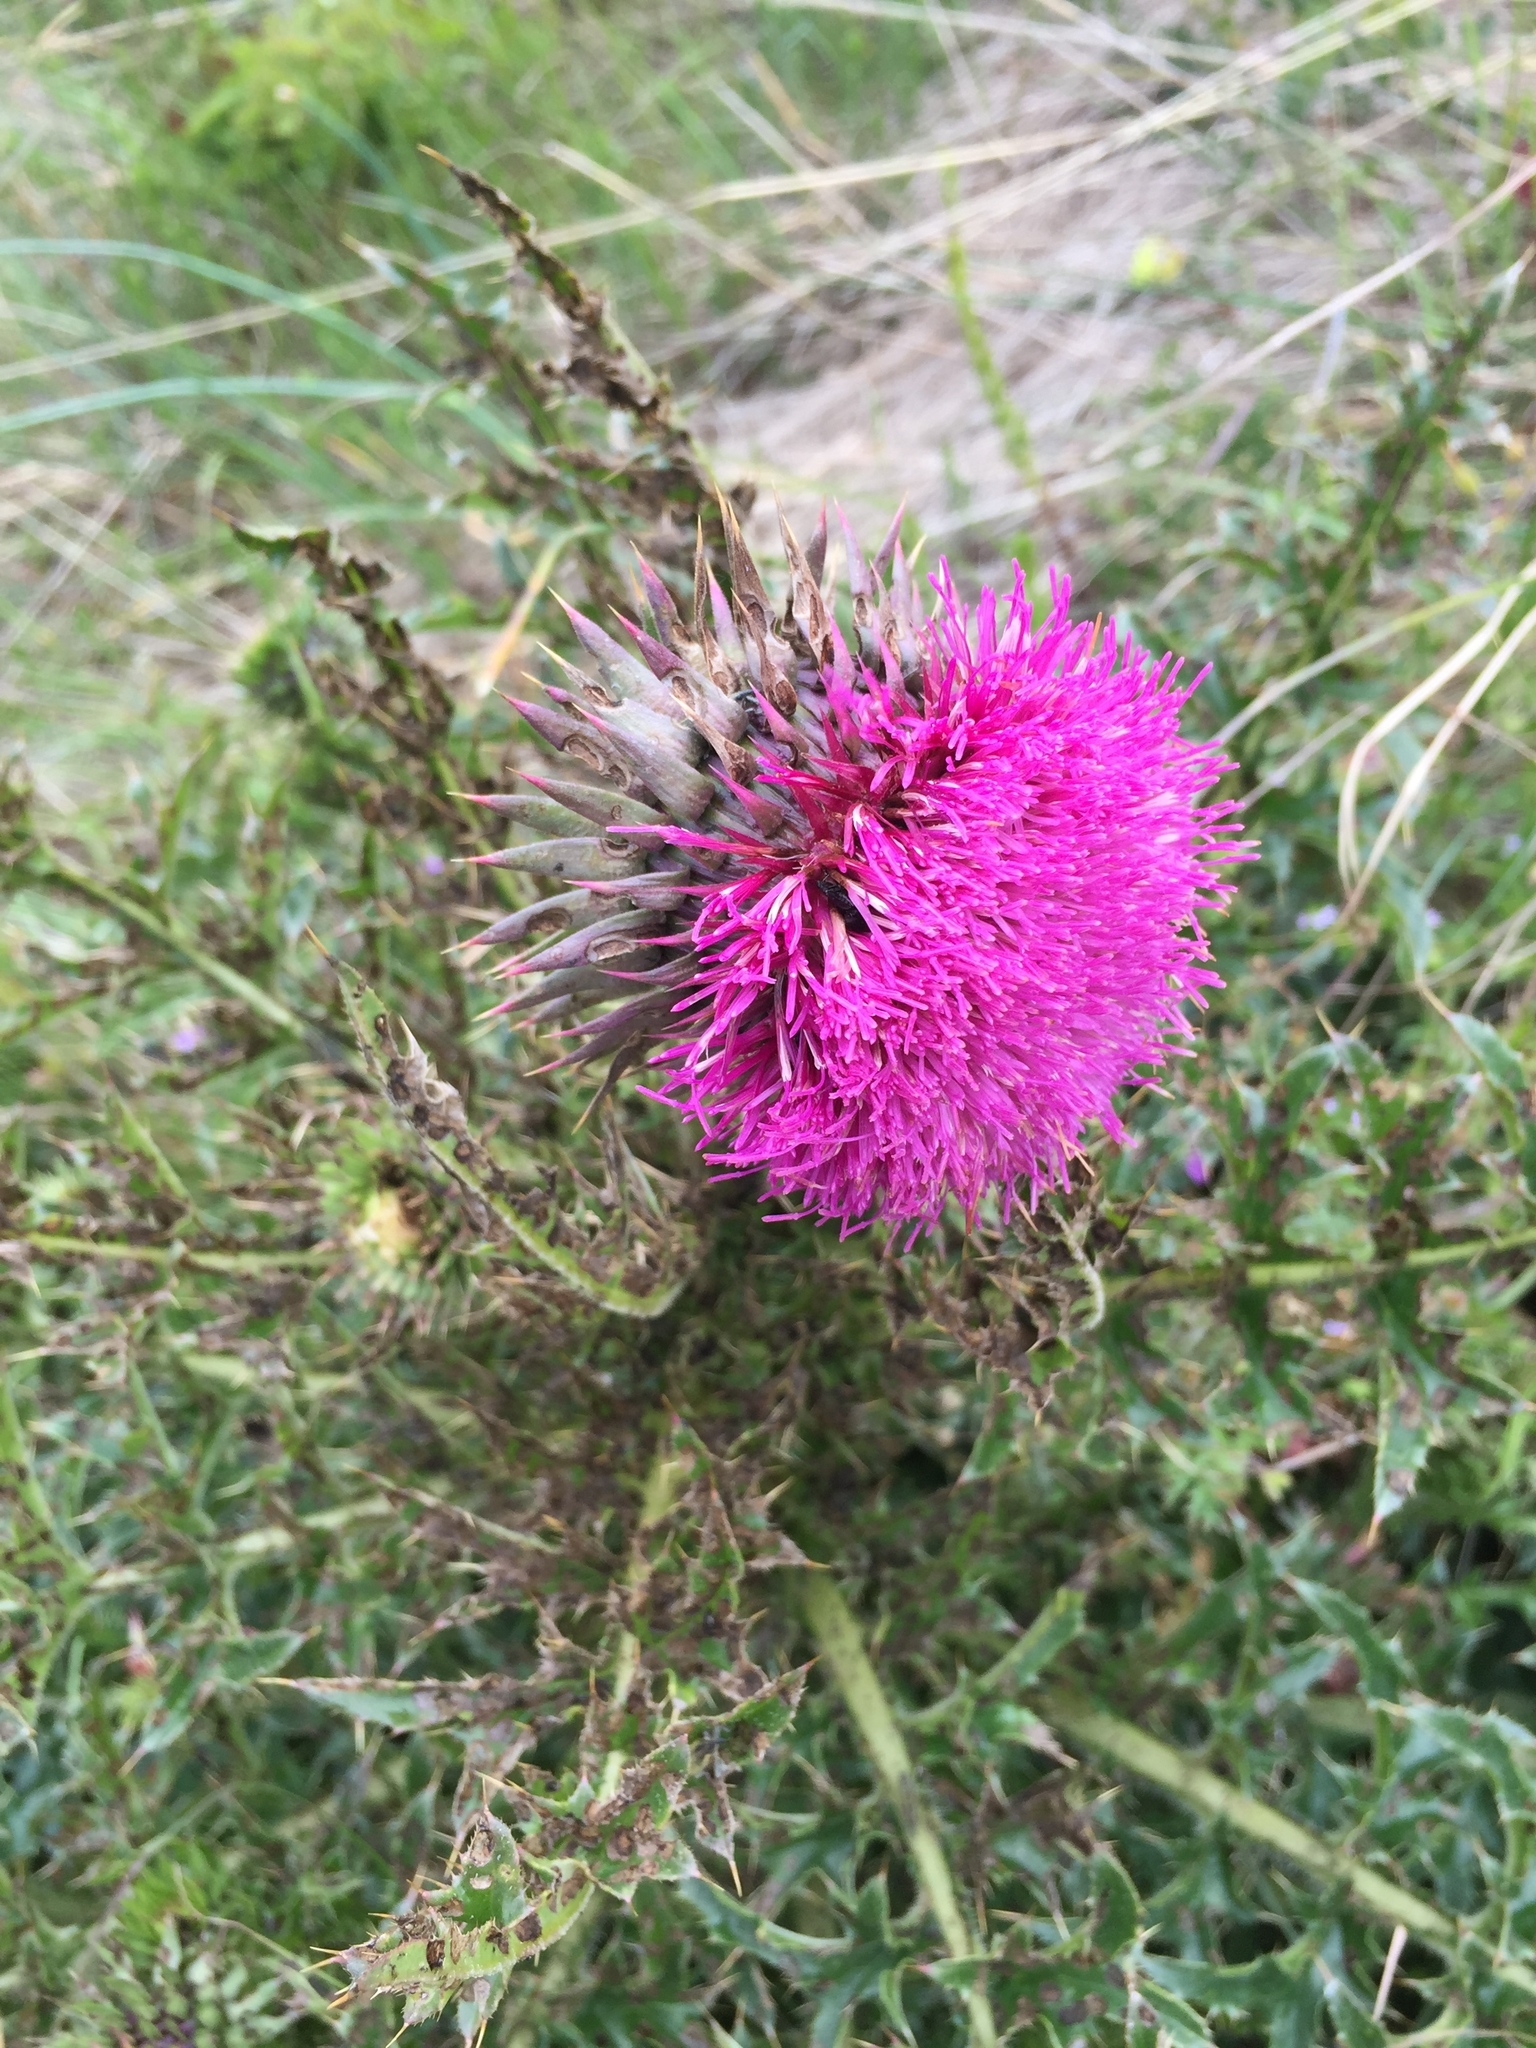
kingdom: Plantae
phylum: Tracheophyta
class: Magnoliopsida
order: Asterales
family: Asteraceae
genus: Carduus
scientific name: Carduus nutans
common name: Musk thistle
